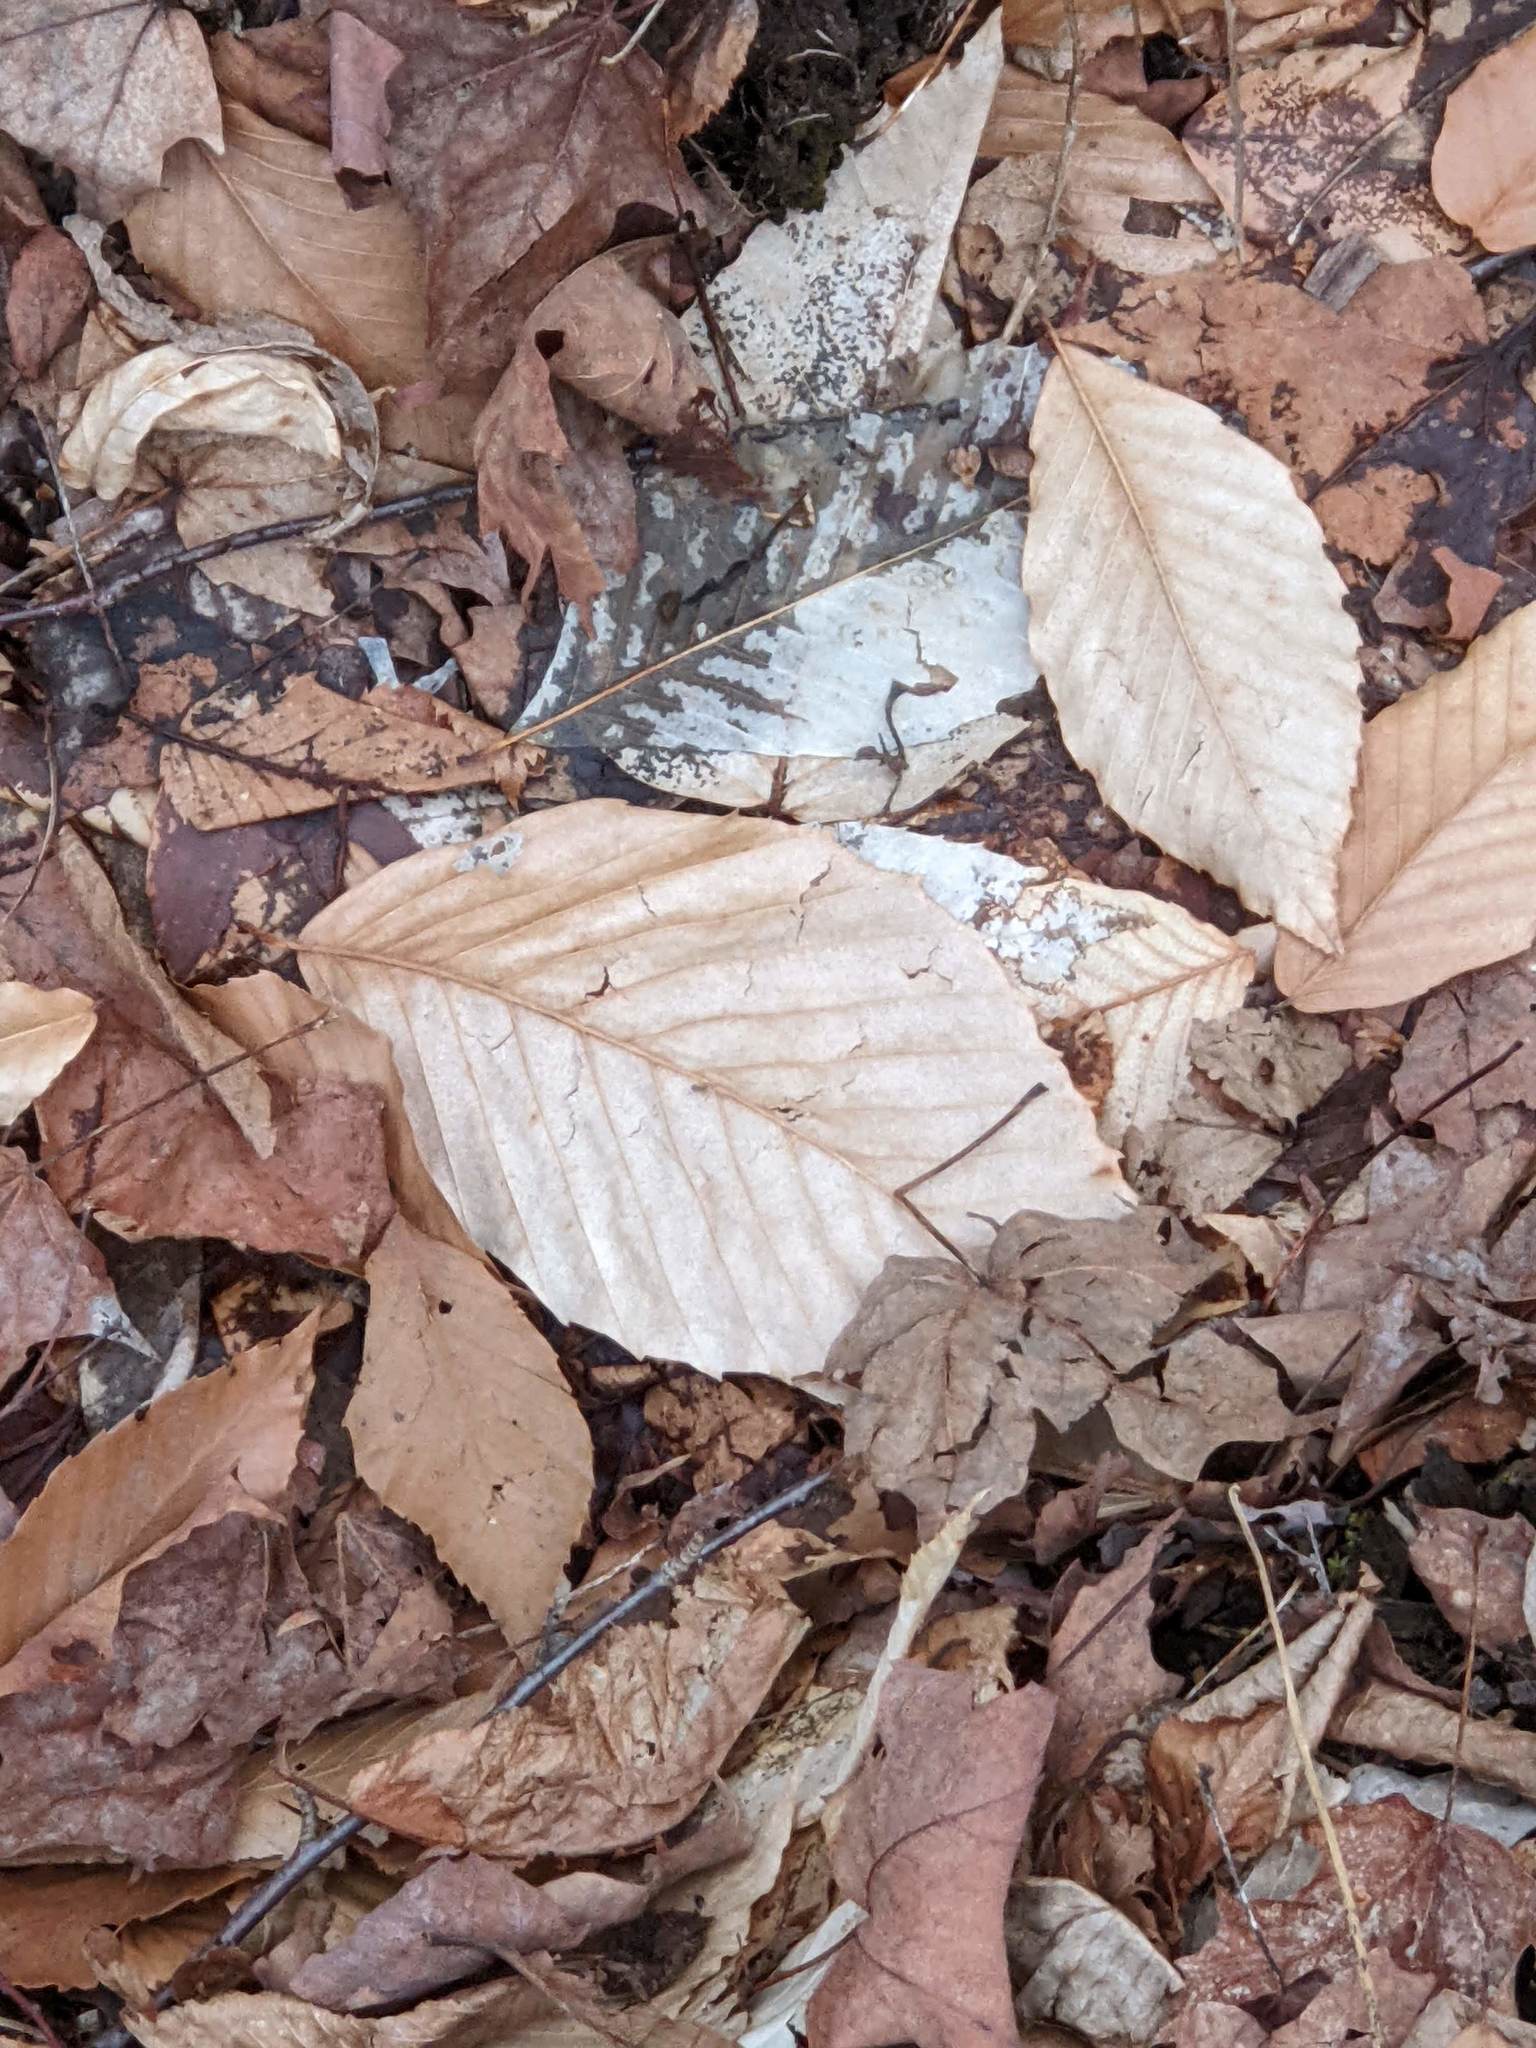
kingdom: Plantae
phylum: Tracheophyta
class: Magnoliopsida
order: Fagales
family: Fagaceae
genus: Fagus
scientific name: Fagus grandifolia
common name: American beech
